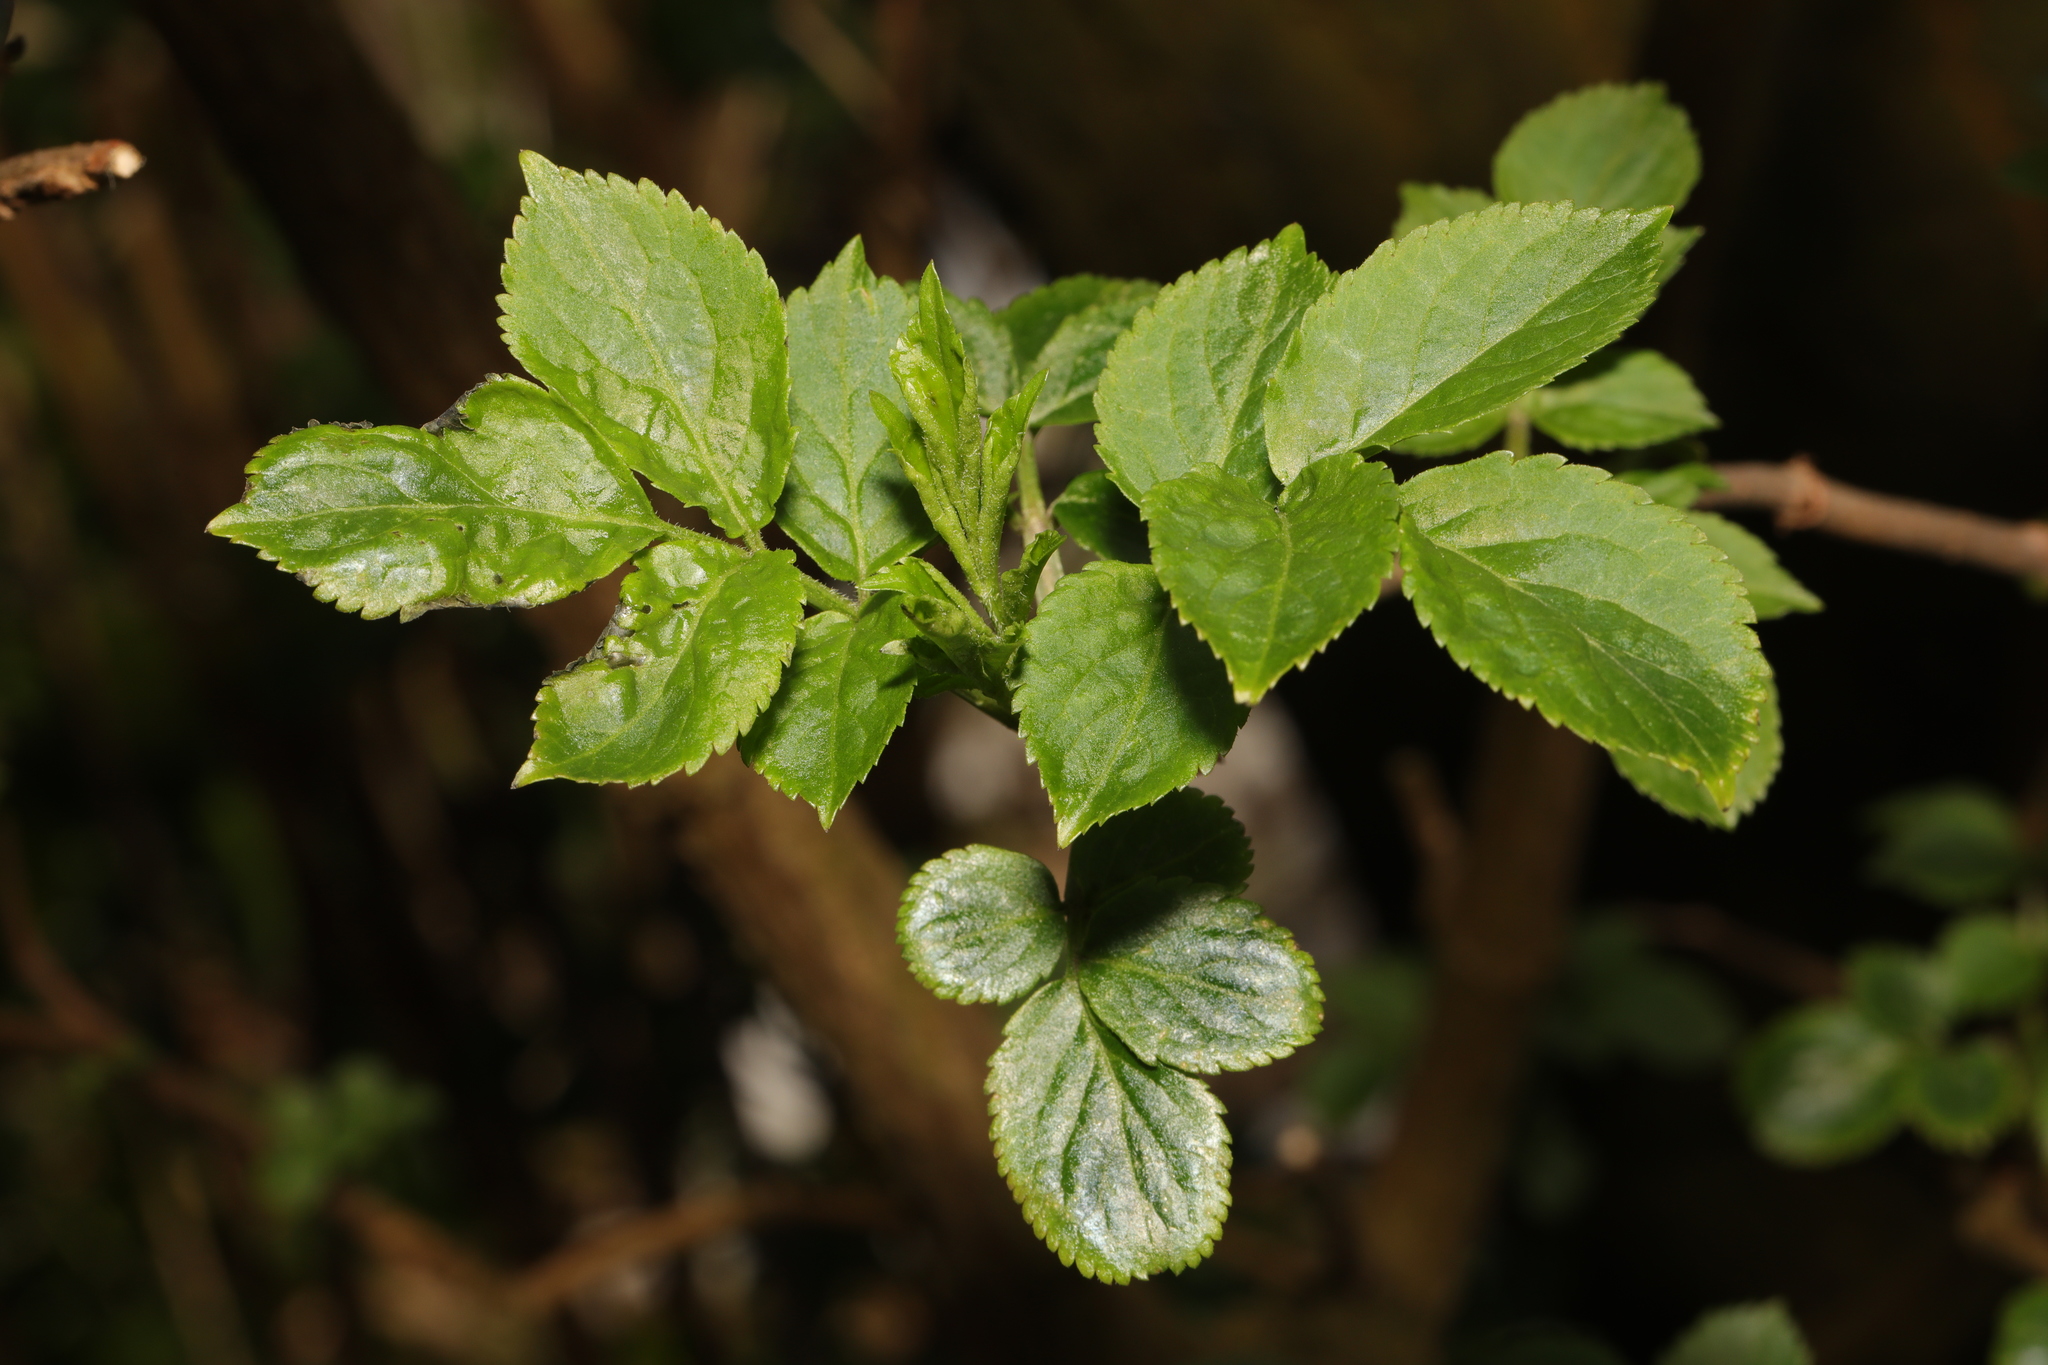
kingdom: Plantae
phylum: Tracheophyta
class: Magnoliopsida
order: Dipsacales
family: Viburnaceae
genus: Sambucus
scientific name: Sambucus nigra
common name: Elder
